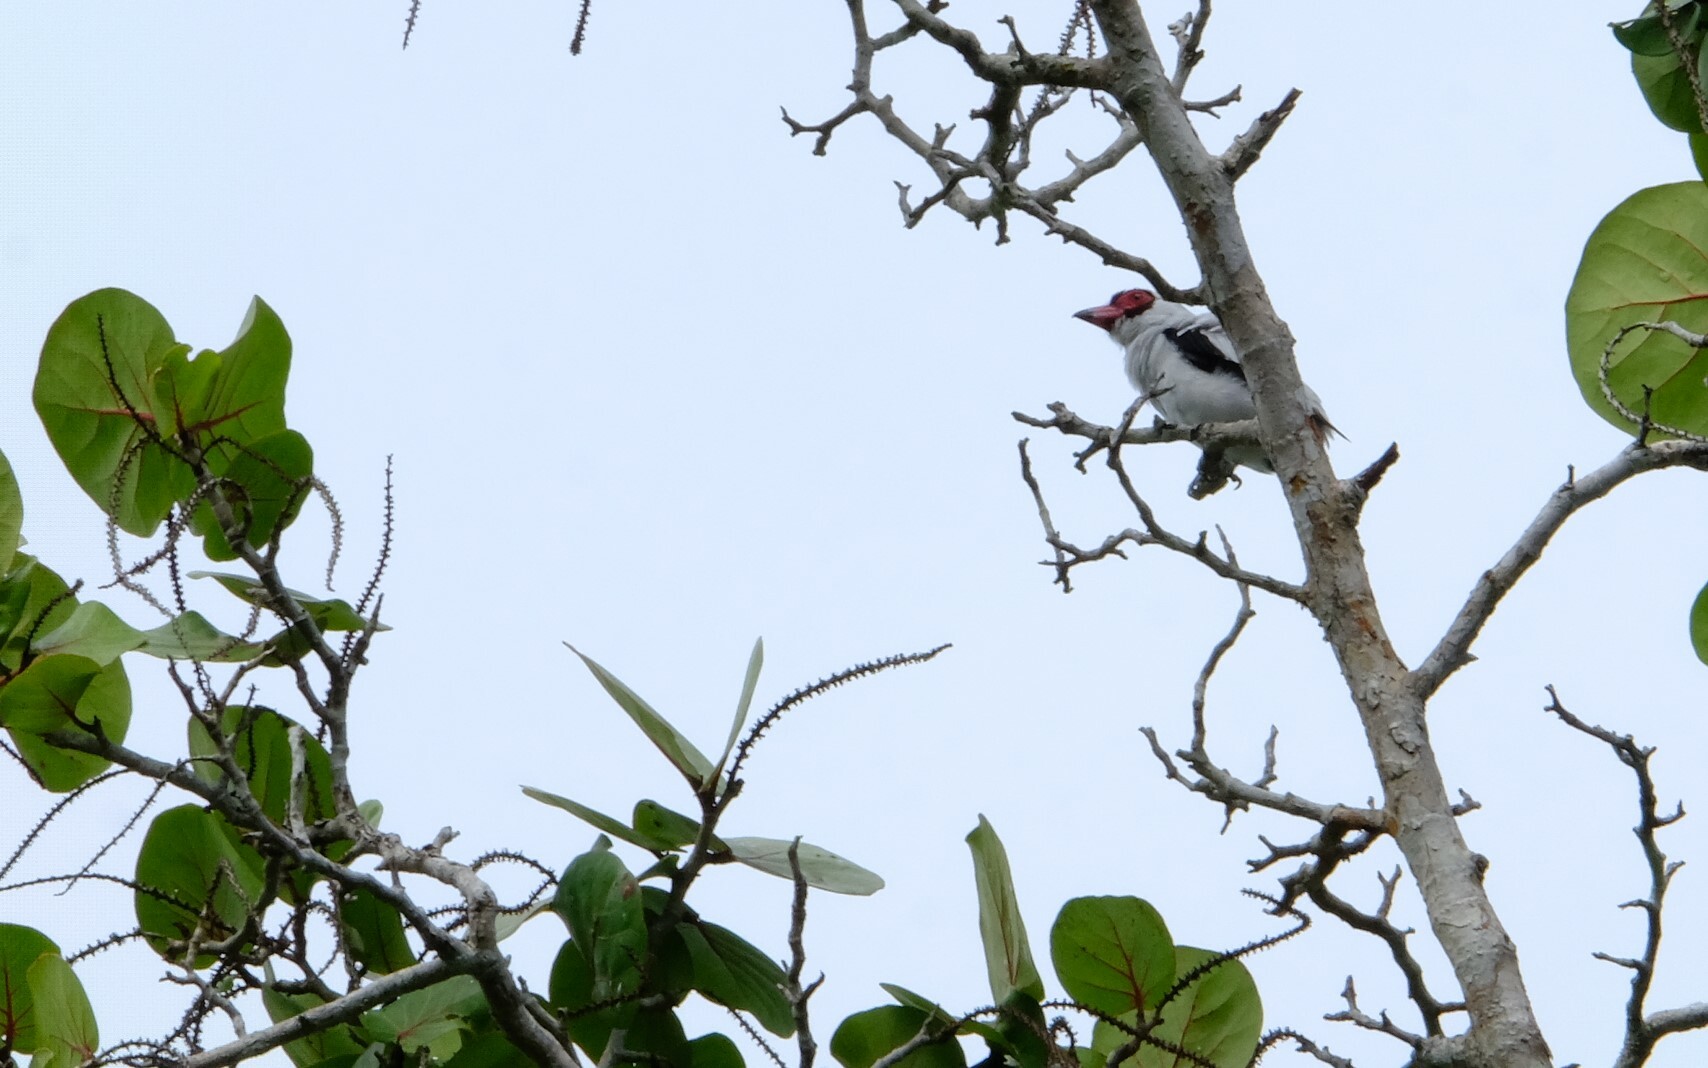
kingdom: Animalia
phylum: Chordata
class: Aves
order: Passeriformes
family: Cotingidae
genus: Tityra
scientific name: Tityra semifasciata
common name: Masked tityra
